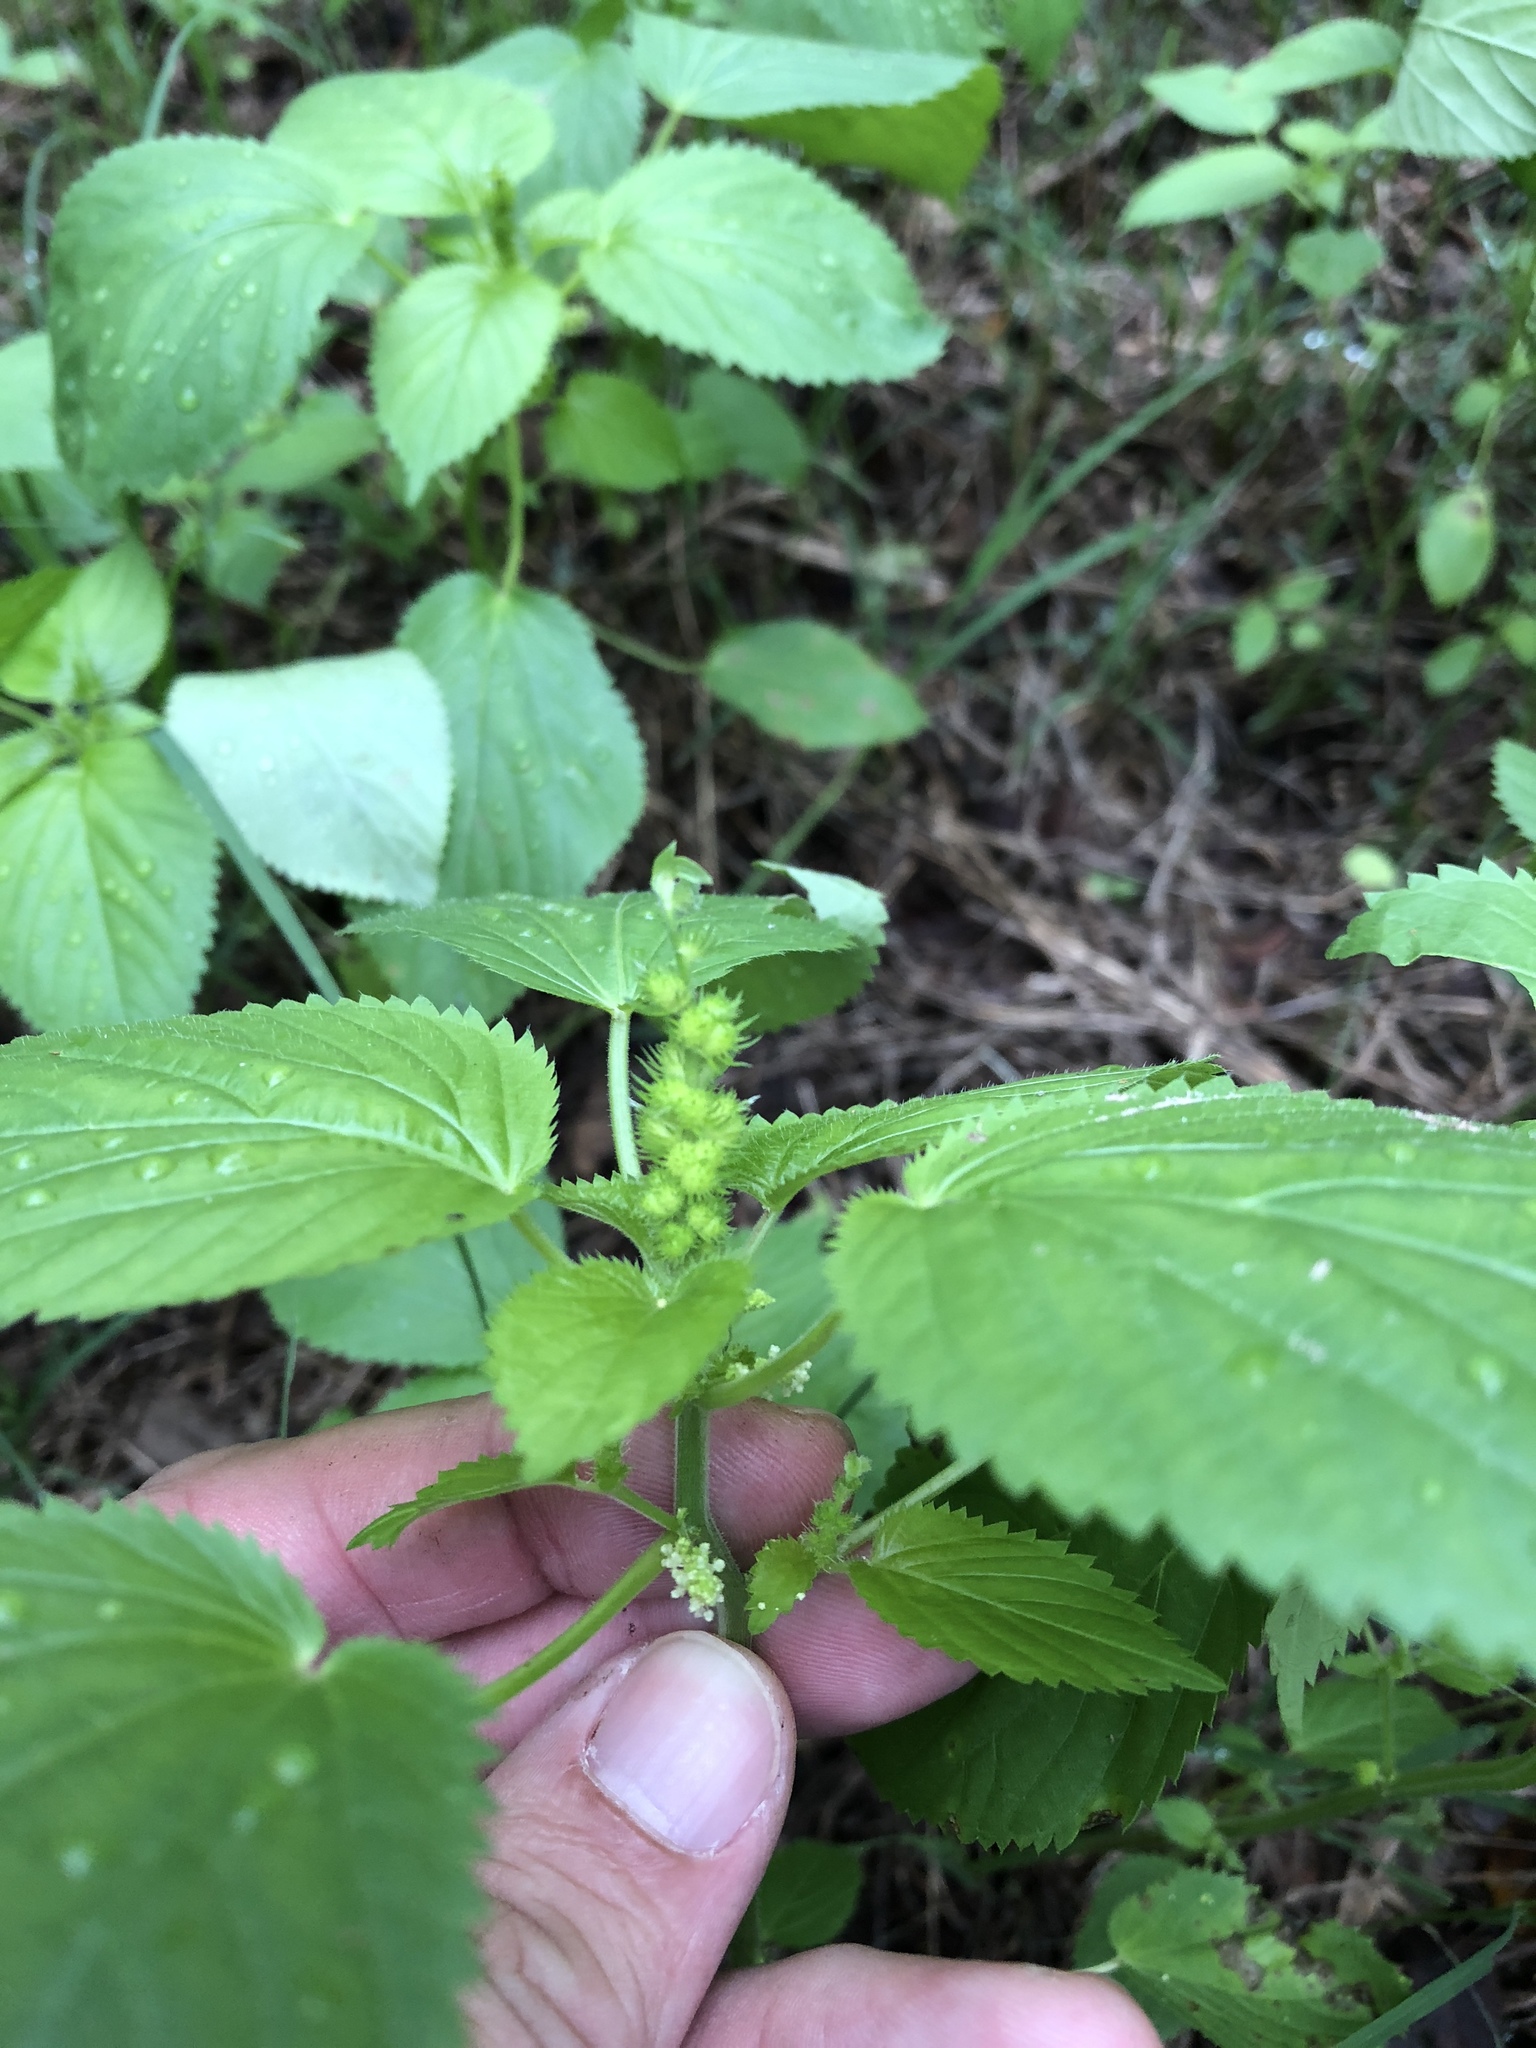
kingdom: Plantae
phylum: Tracheophyta
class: Magnoliopsida
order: Malpighiales
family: Euphorbiaceae
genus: Acalypha
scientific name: Acalypha ostryifolia
